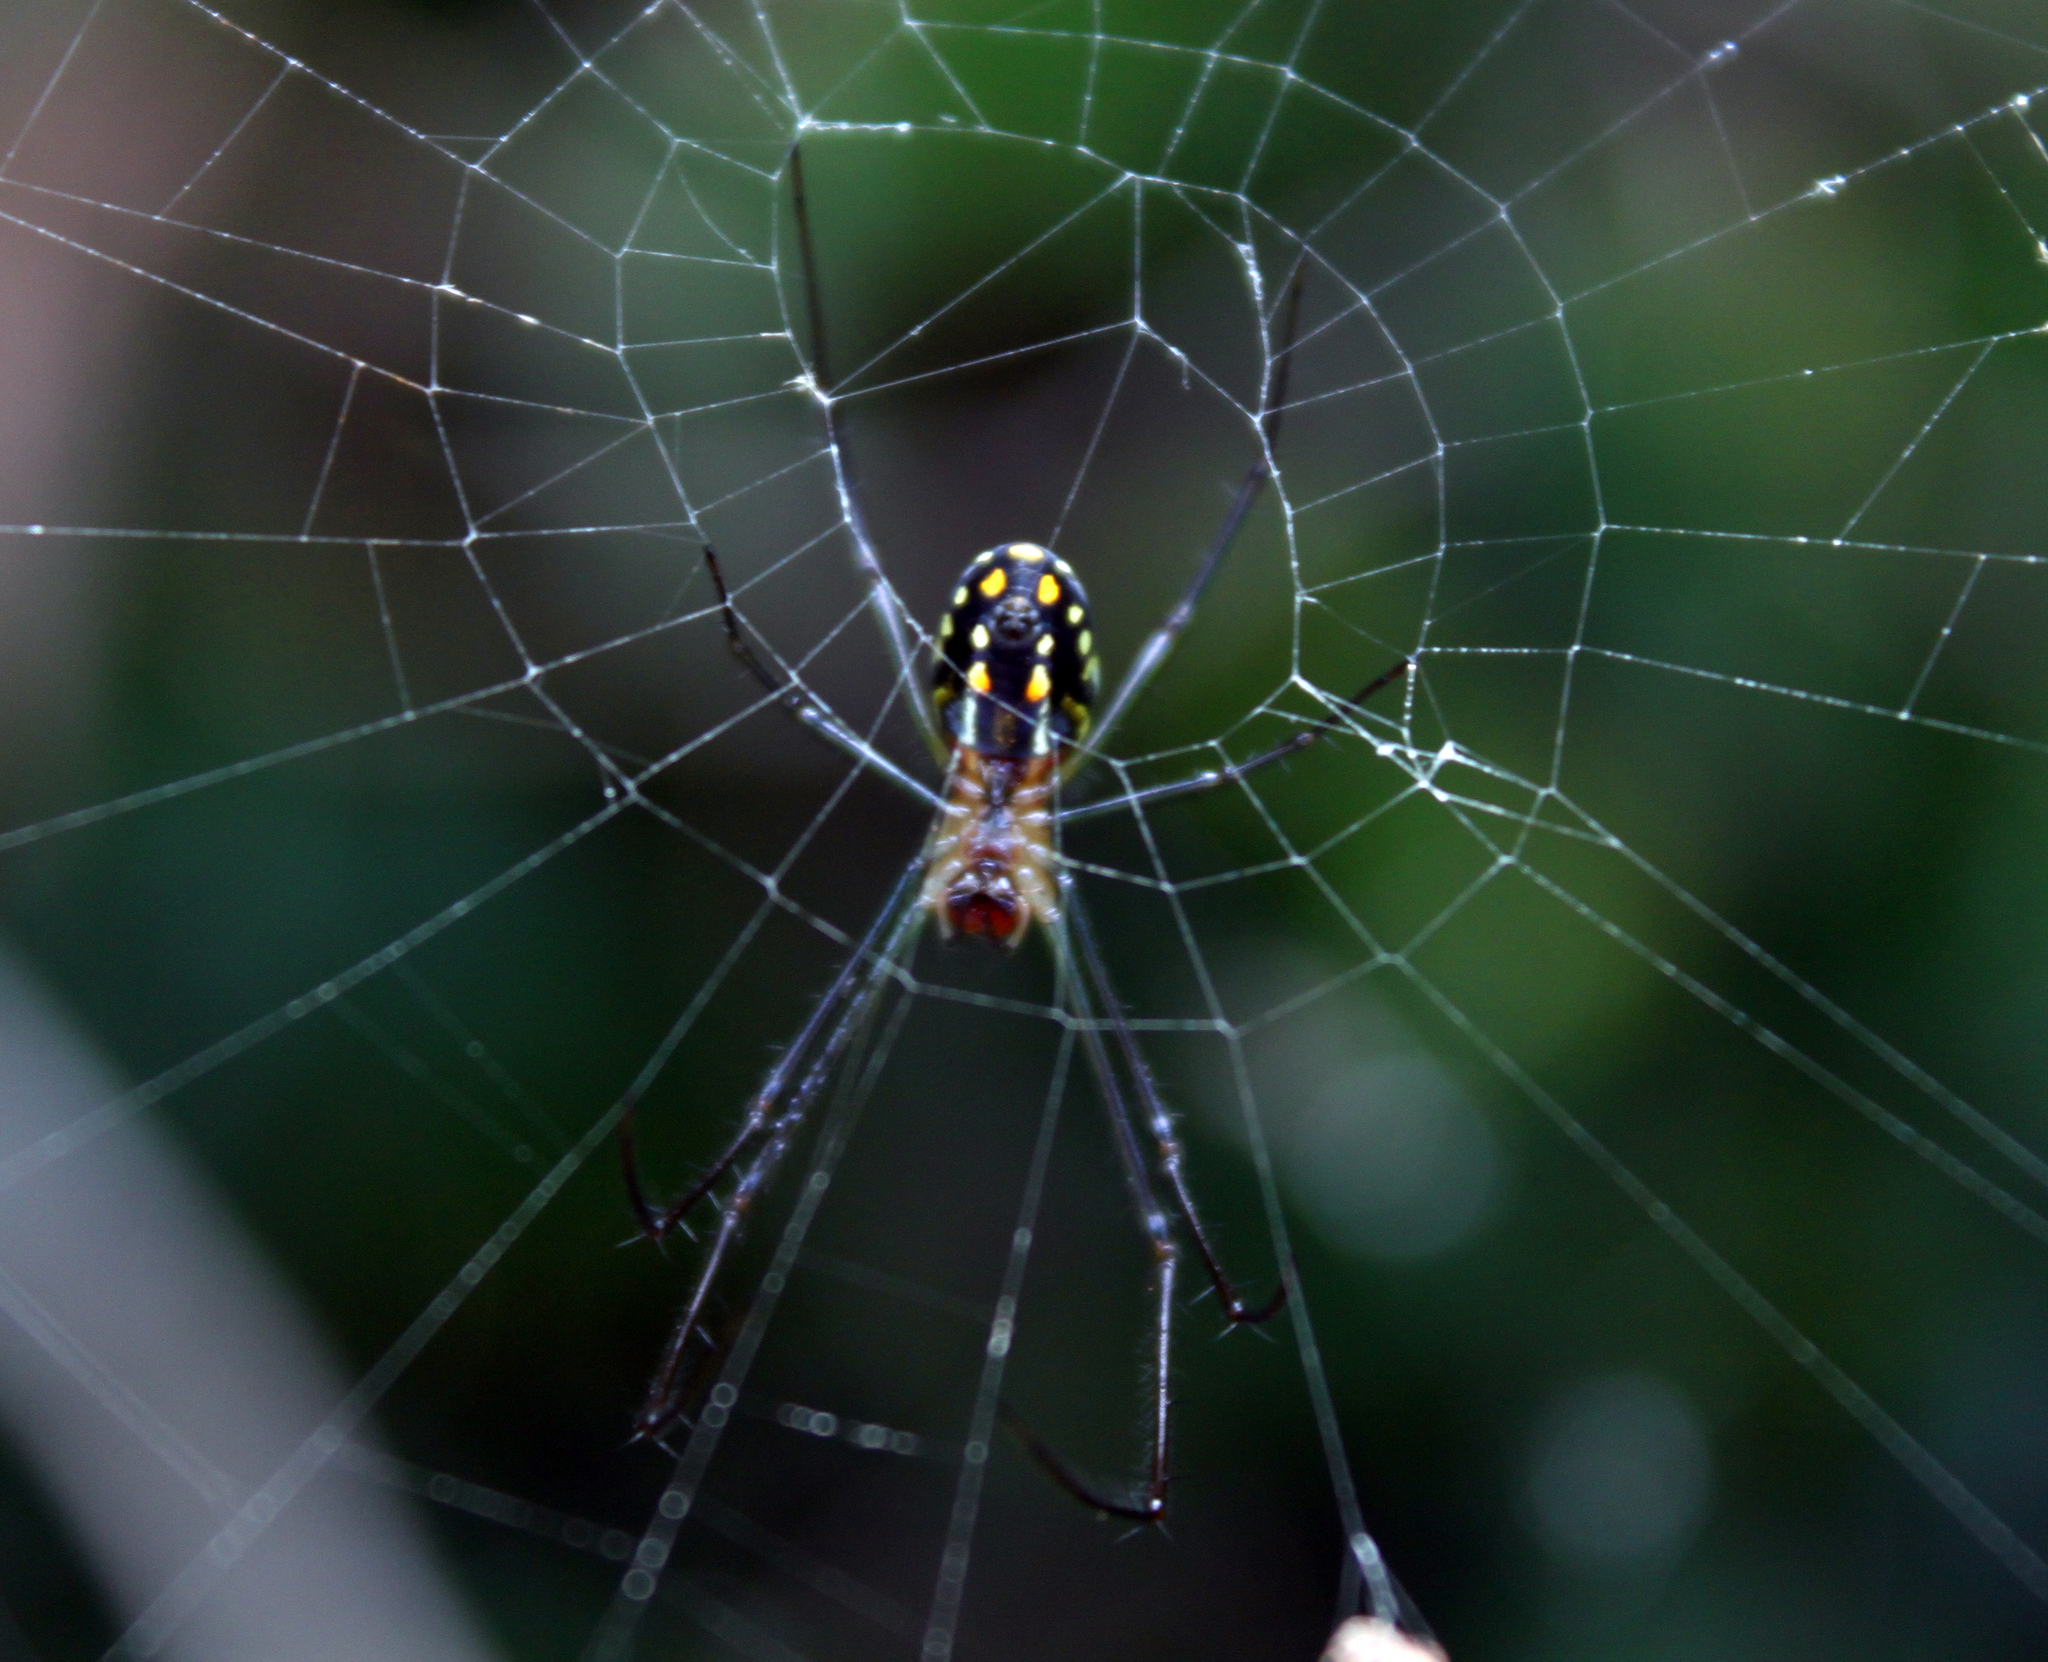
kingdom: Animalia
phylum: Arthropoda
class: Arachnida
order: Araneae
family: Tetragnathidae
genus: Leucauge
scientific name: Leucauge argyra
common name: Longjawed orb weavers
